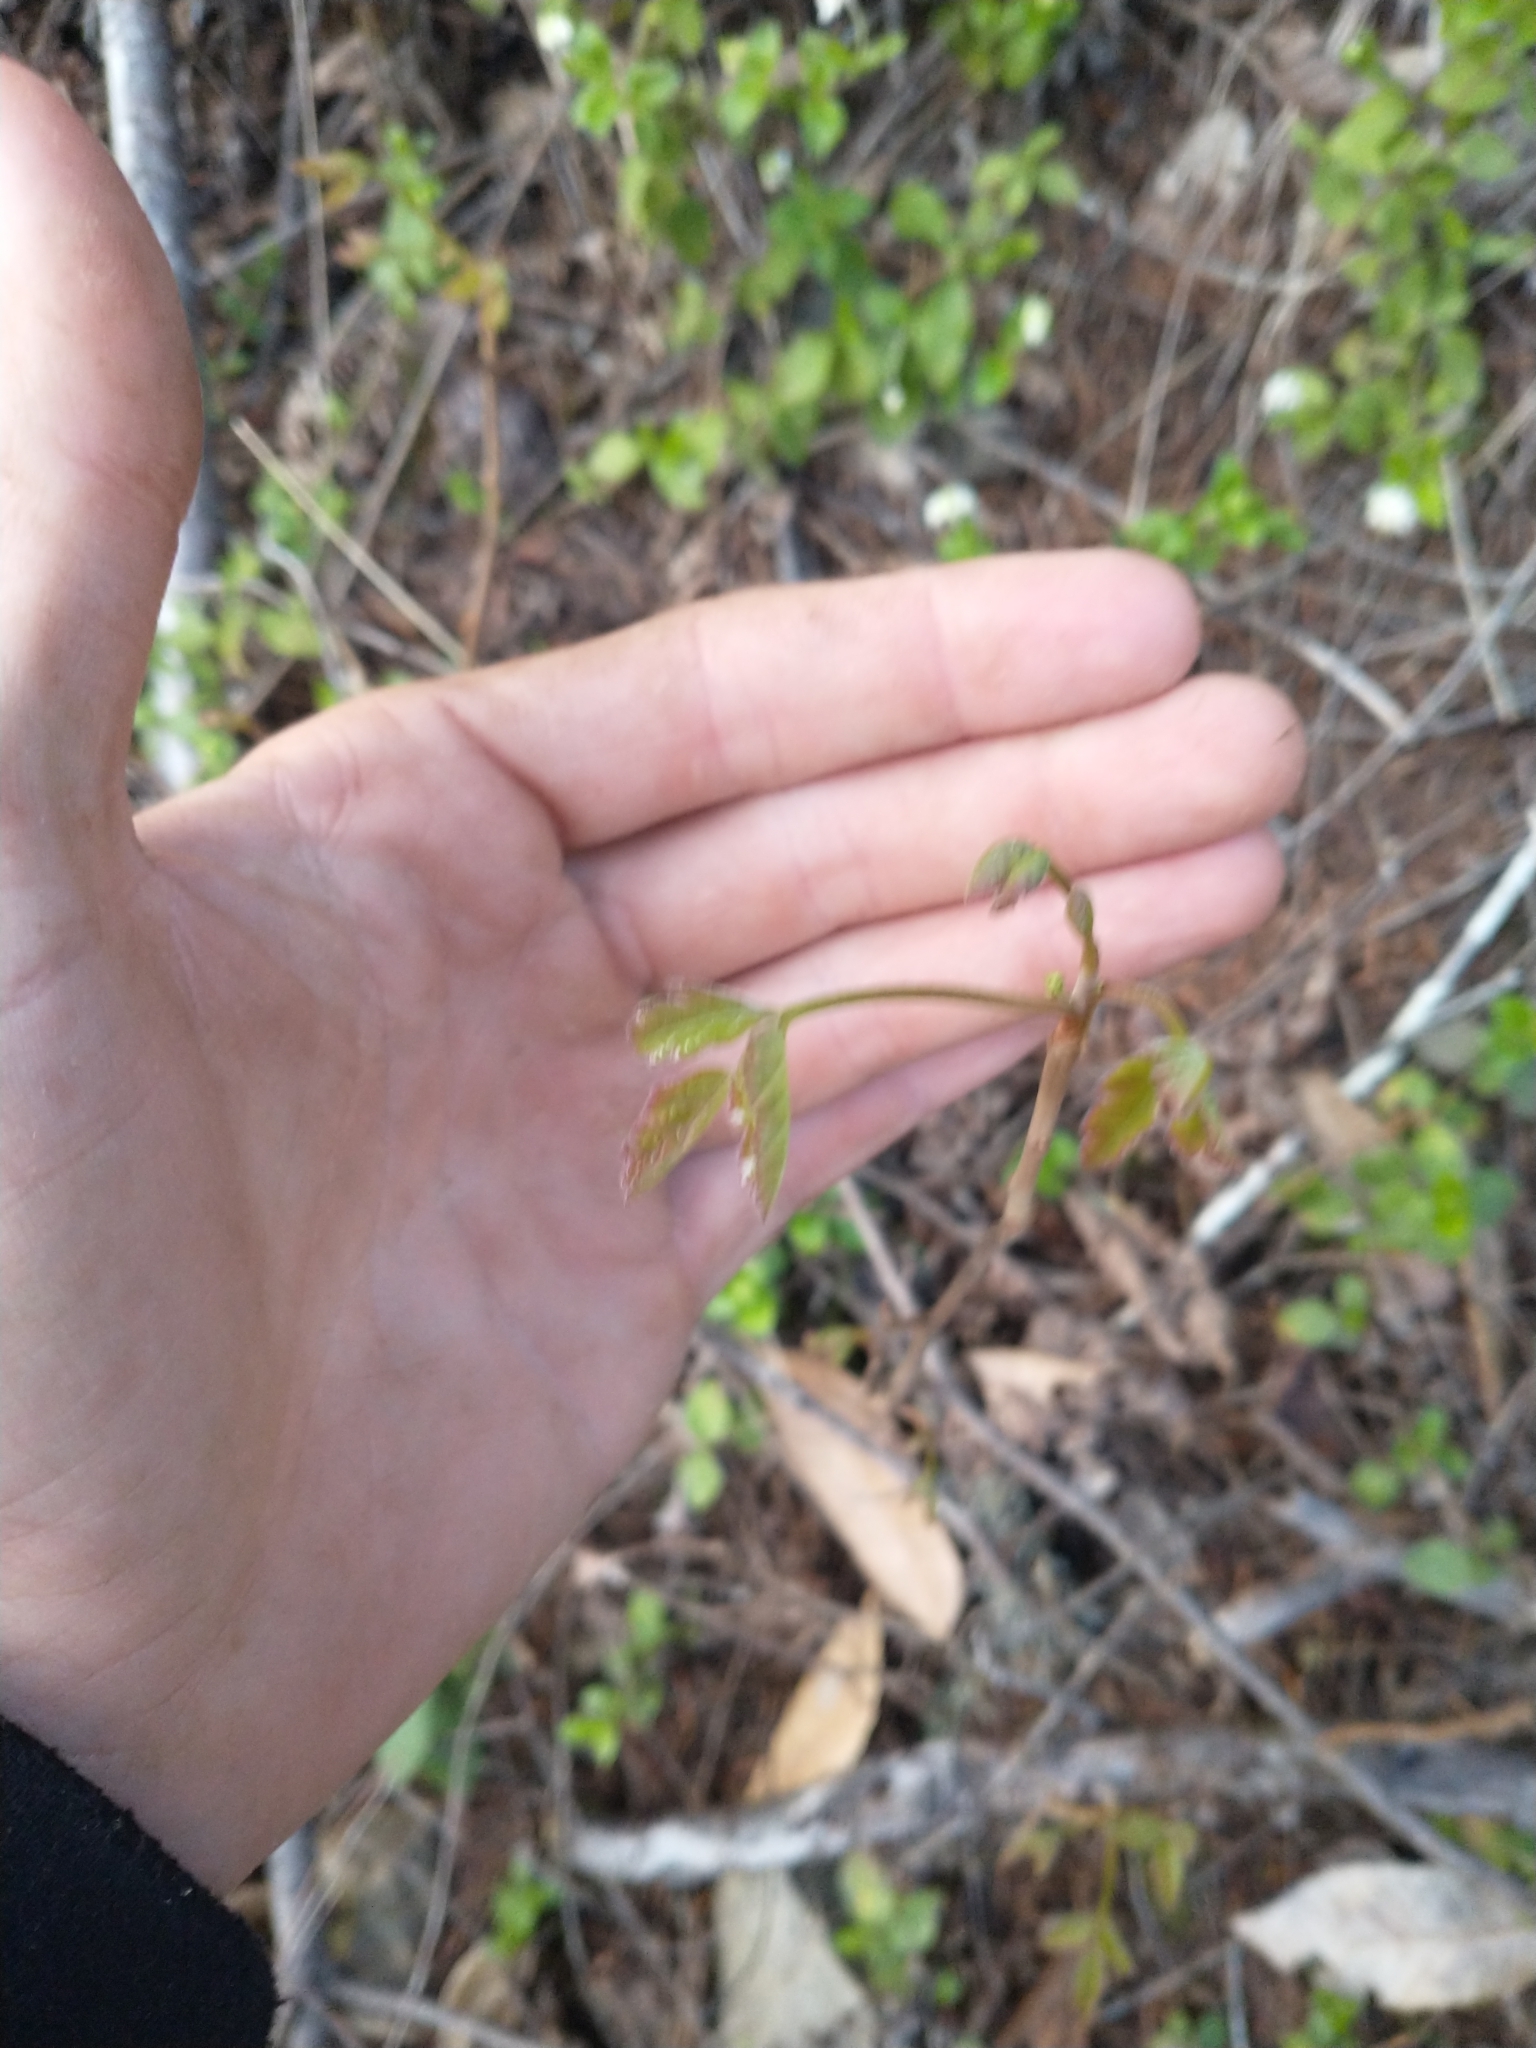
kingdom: Plantae
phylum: Tracheophyta
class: Magnoliopsida
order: Sapindales
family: Anacardiaceae
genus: Toxicodendron
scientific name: Toxicodendron diversilobum
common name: Pacific poison-oak
